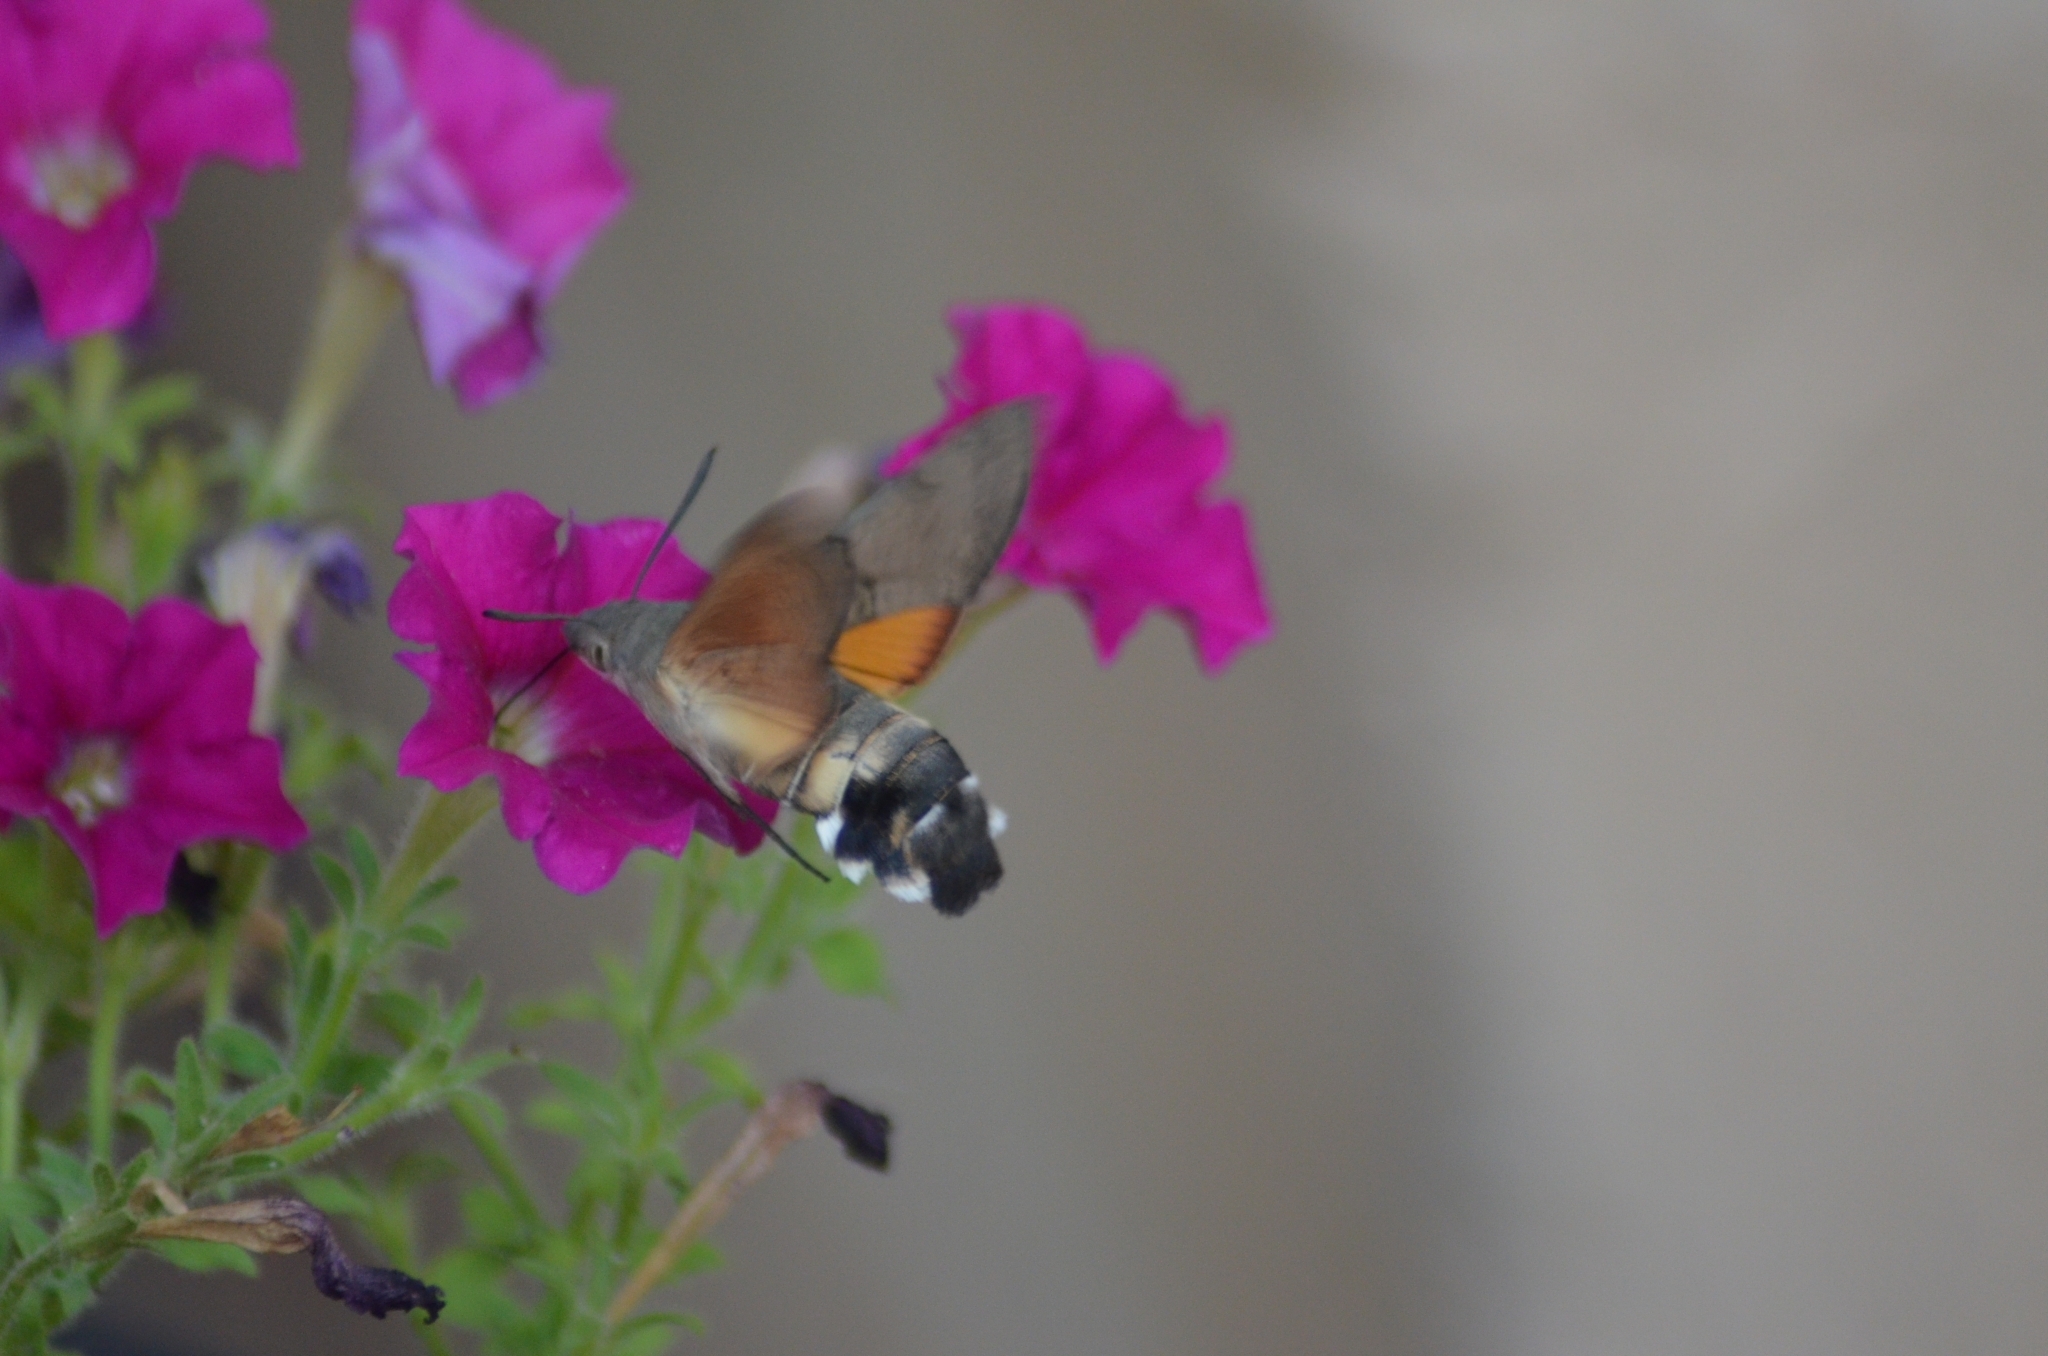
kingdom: Animalia
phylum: Arthropoda
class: Insecta
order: Lepidoptera
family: Sphingidae
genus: Macroglossum
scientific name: Macroglossum stellatarum
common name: Humming-bird hawk-moth
